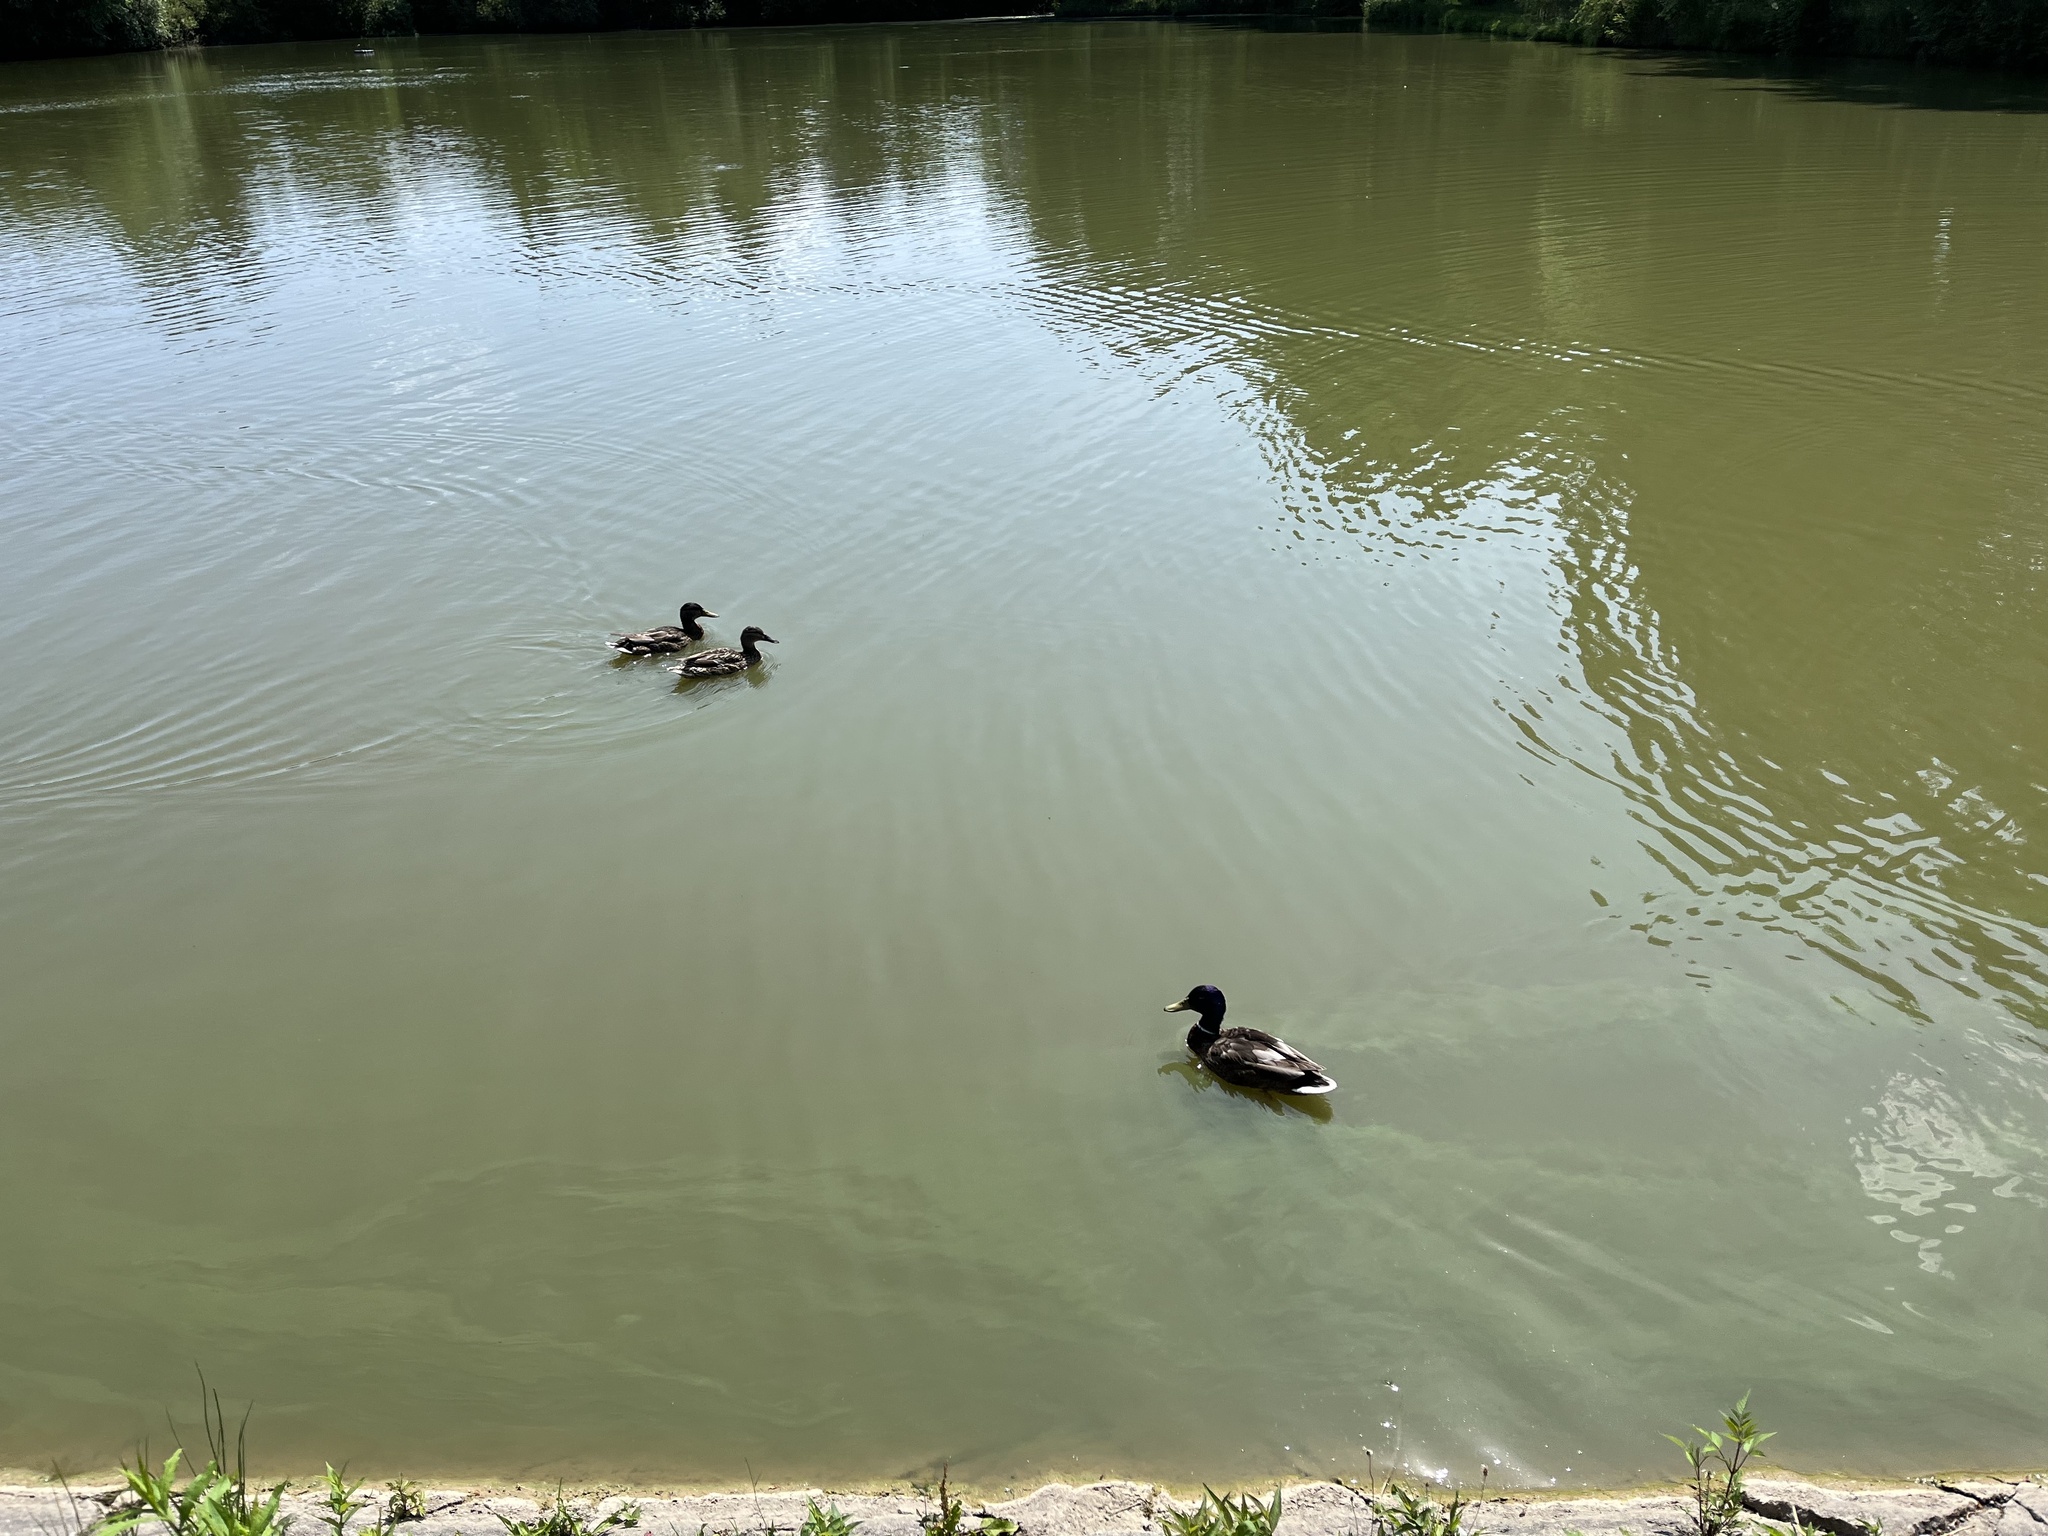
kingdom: Animalia
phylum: Chordata
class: Aves
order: Anseriformes
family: Anatidae
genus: Anas
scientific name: Anas platyrhynchos
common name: Mallard
